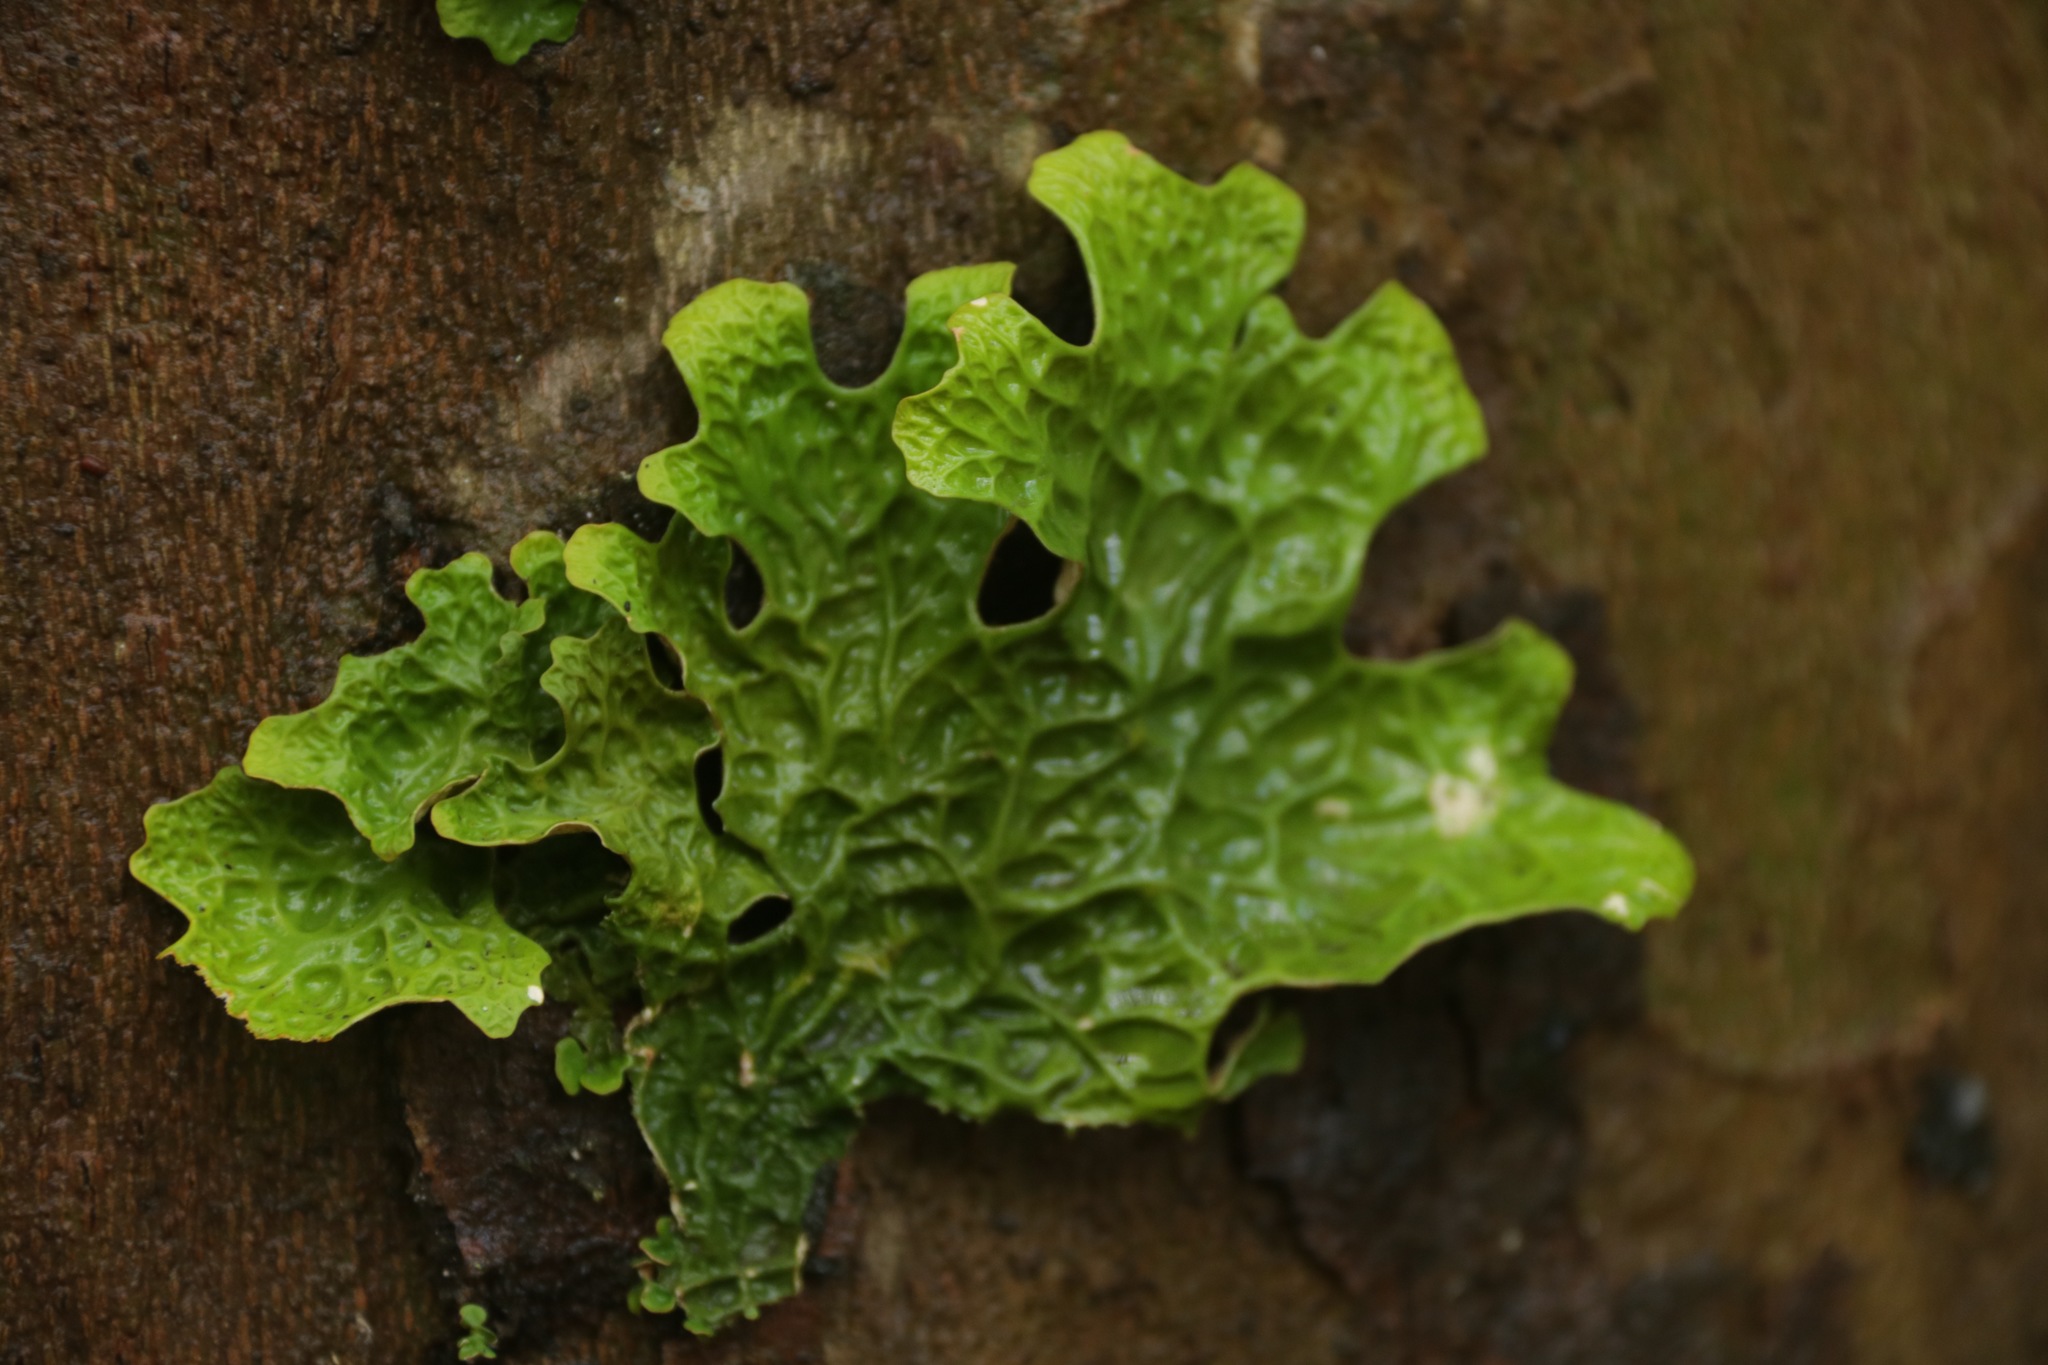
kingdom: Fungi
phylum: Ascomycota
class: Lecanoromycetes
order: Peltigerales
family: Lobariaceae
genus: Lobaria
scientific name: Lobaria pulmonaria
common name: Lungwort
